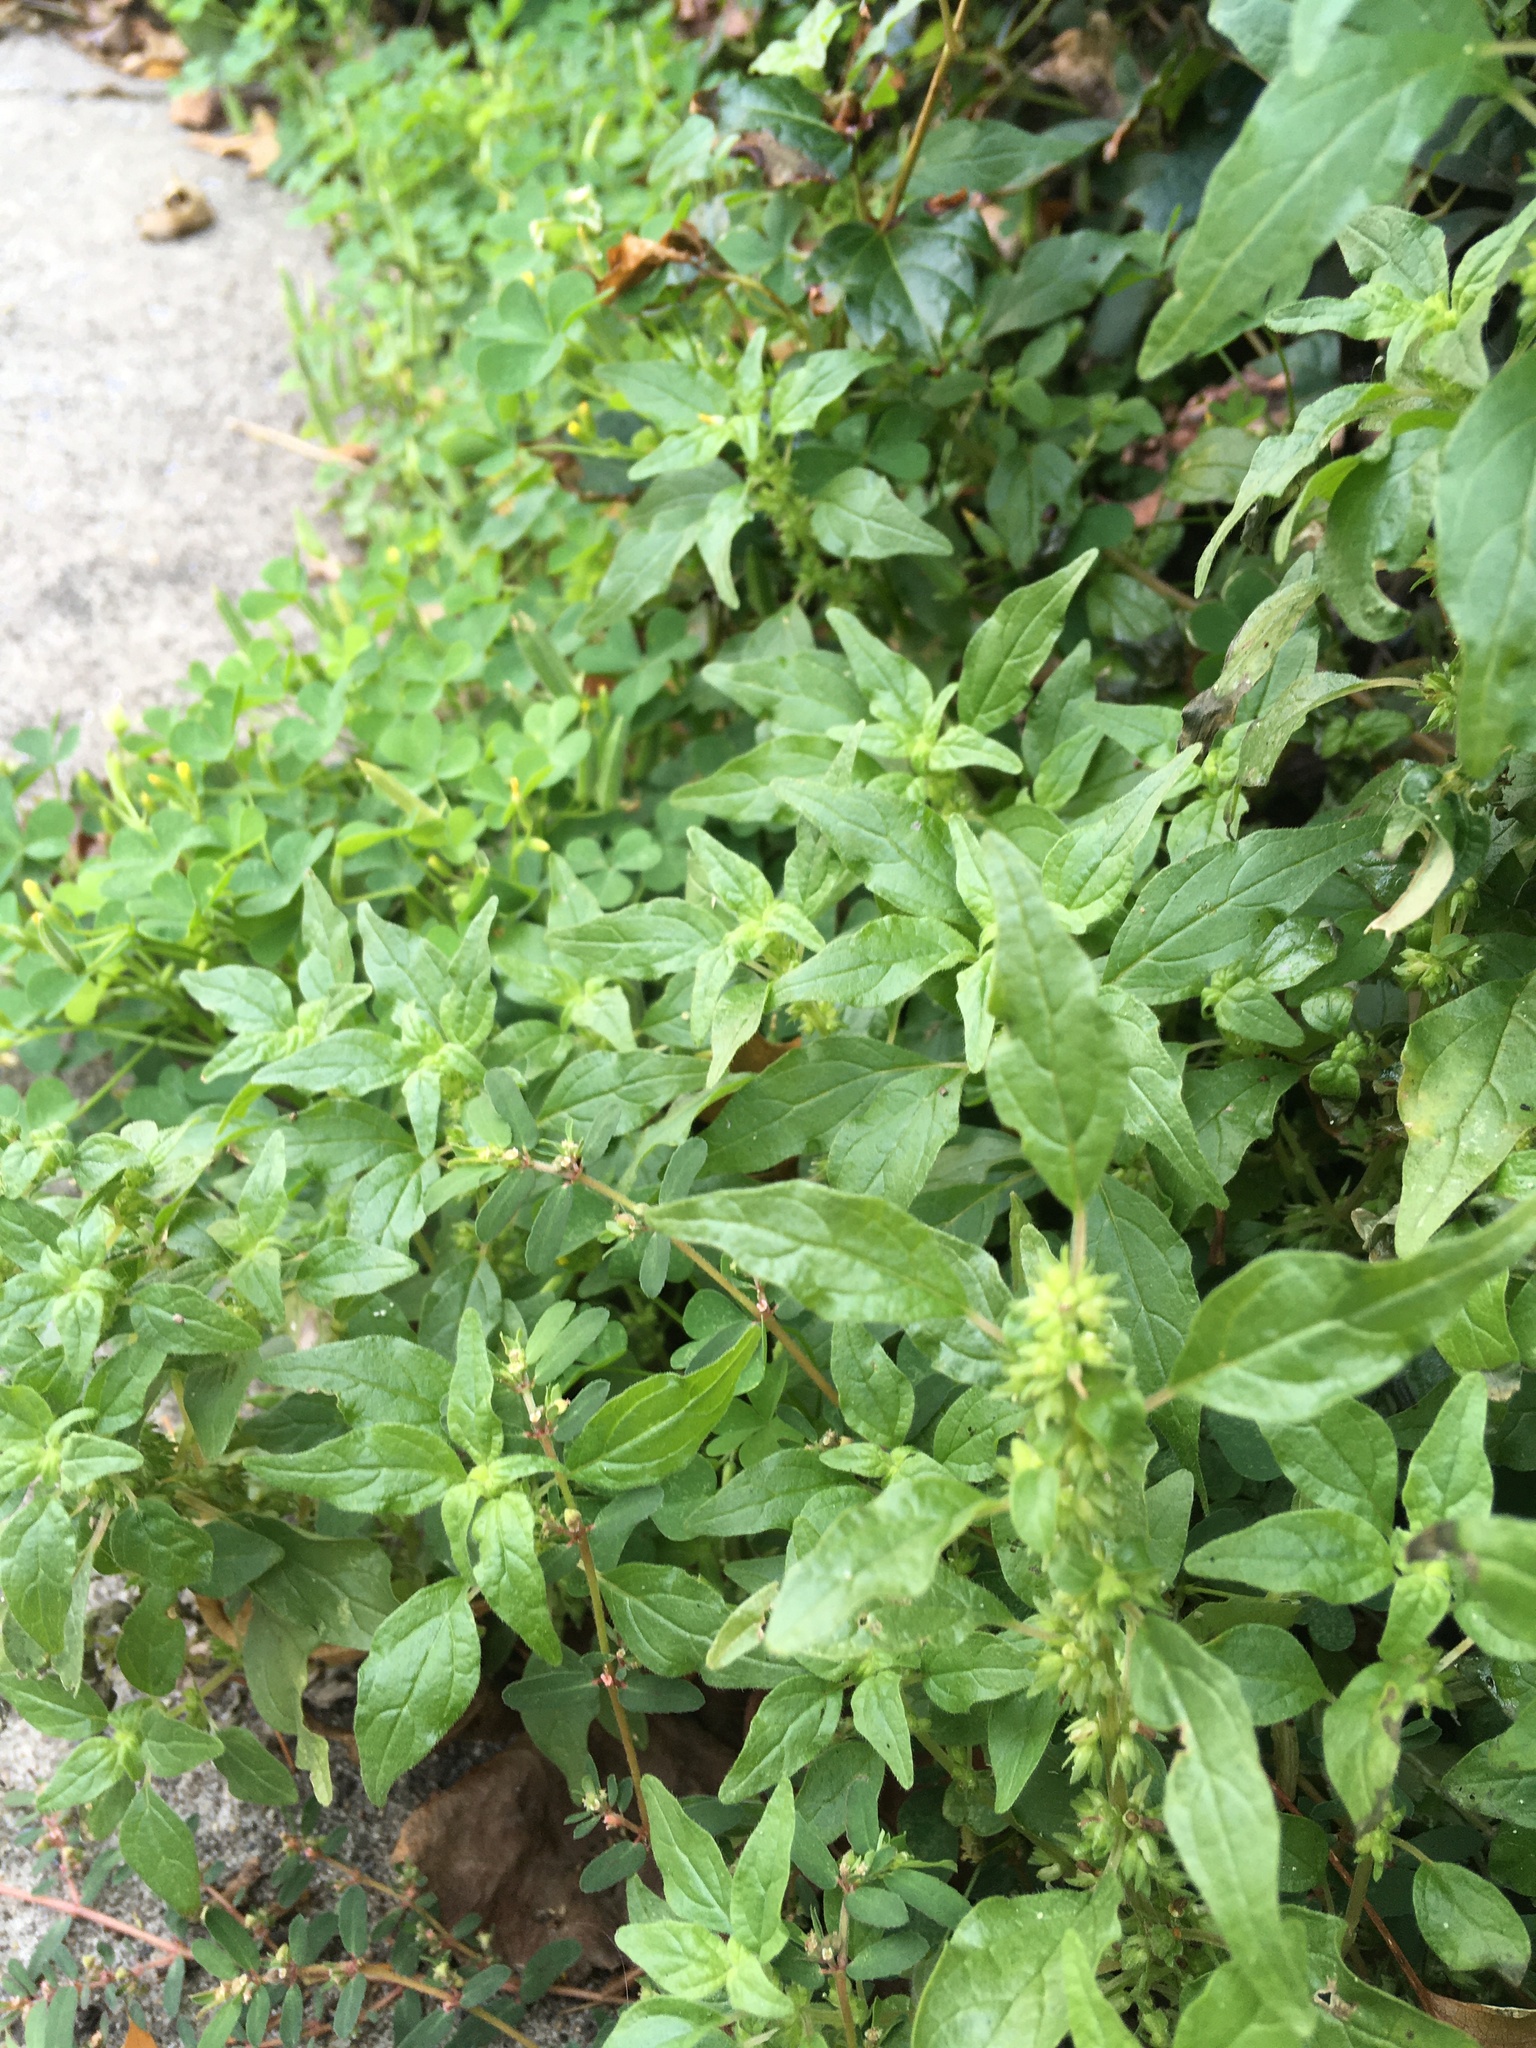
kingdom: Plantae
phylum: Tracheophyta
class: Magnoliopsida
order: Rosales
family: Urticaceae
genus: Parietaria
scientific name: Parietaria pensylvanica
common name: Pennsylvania pellitory
